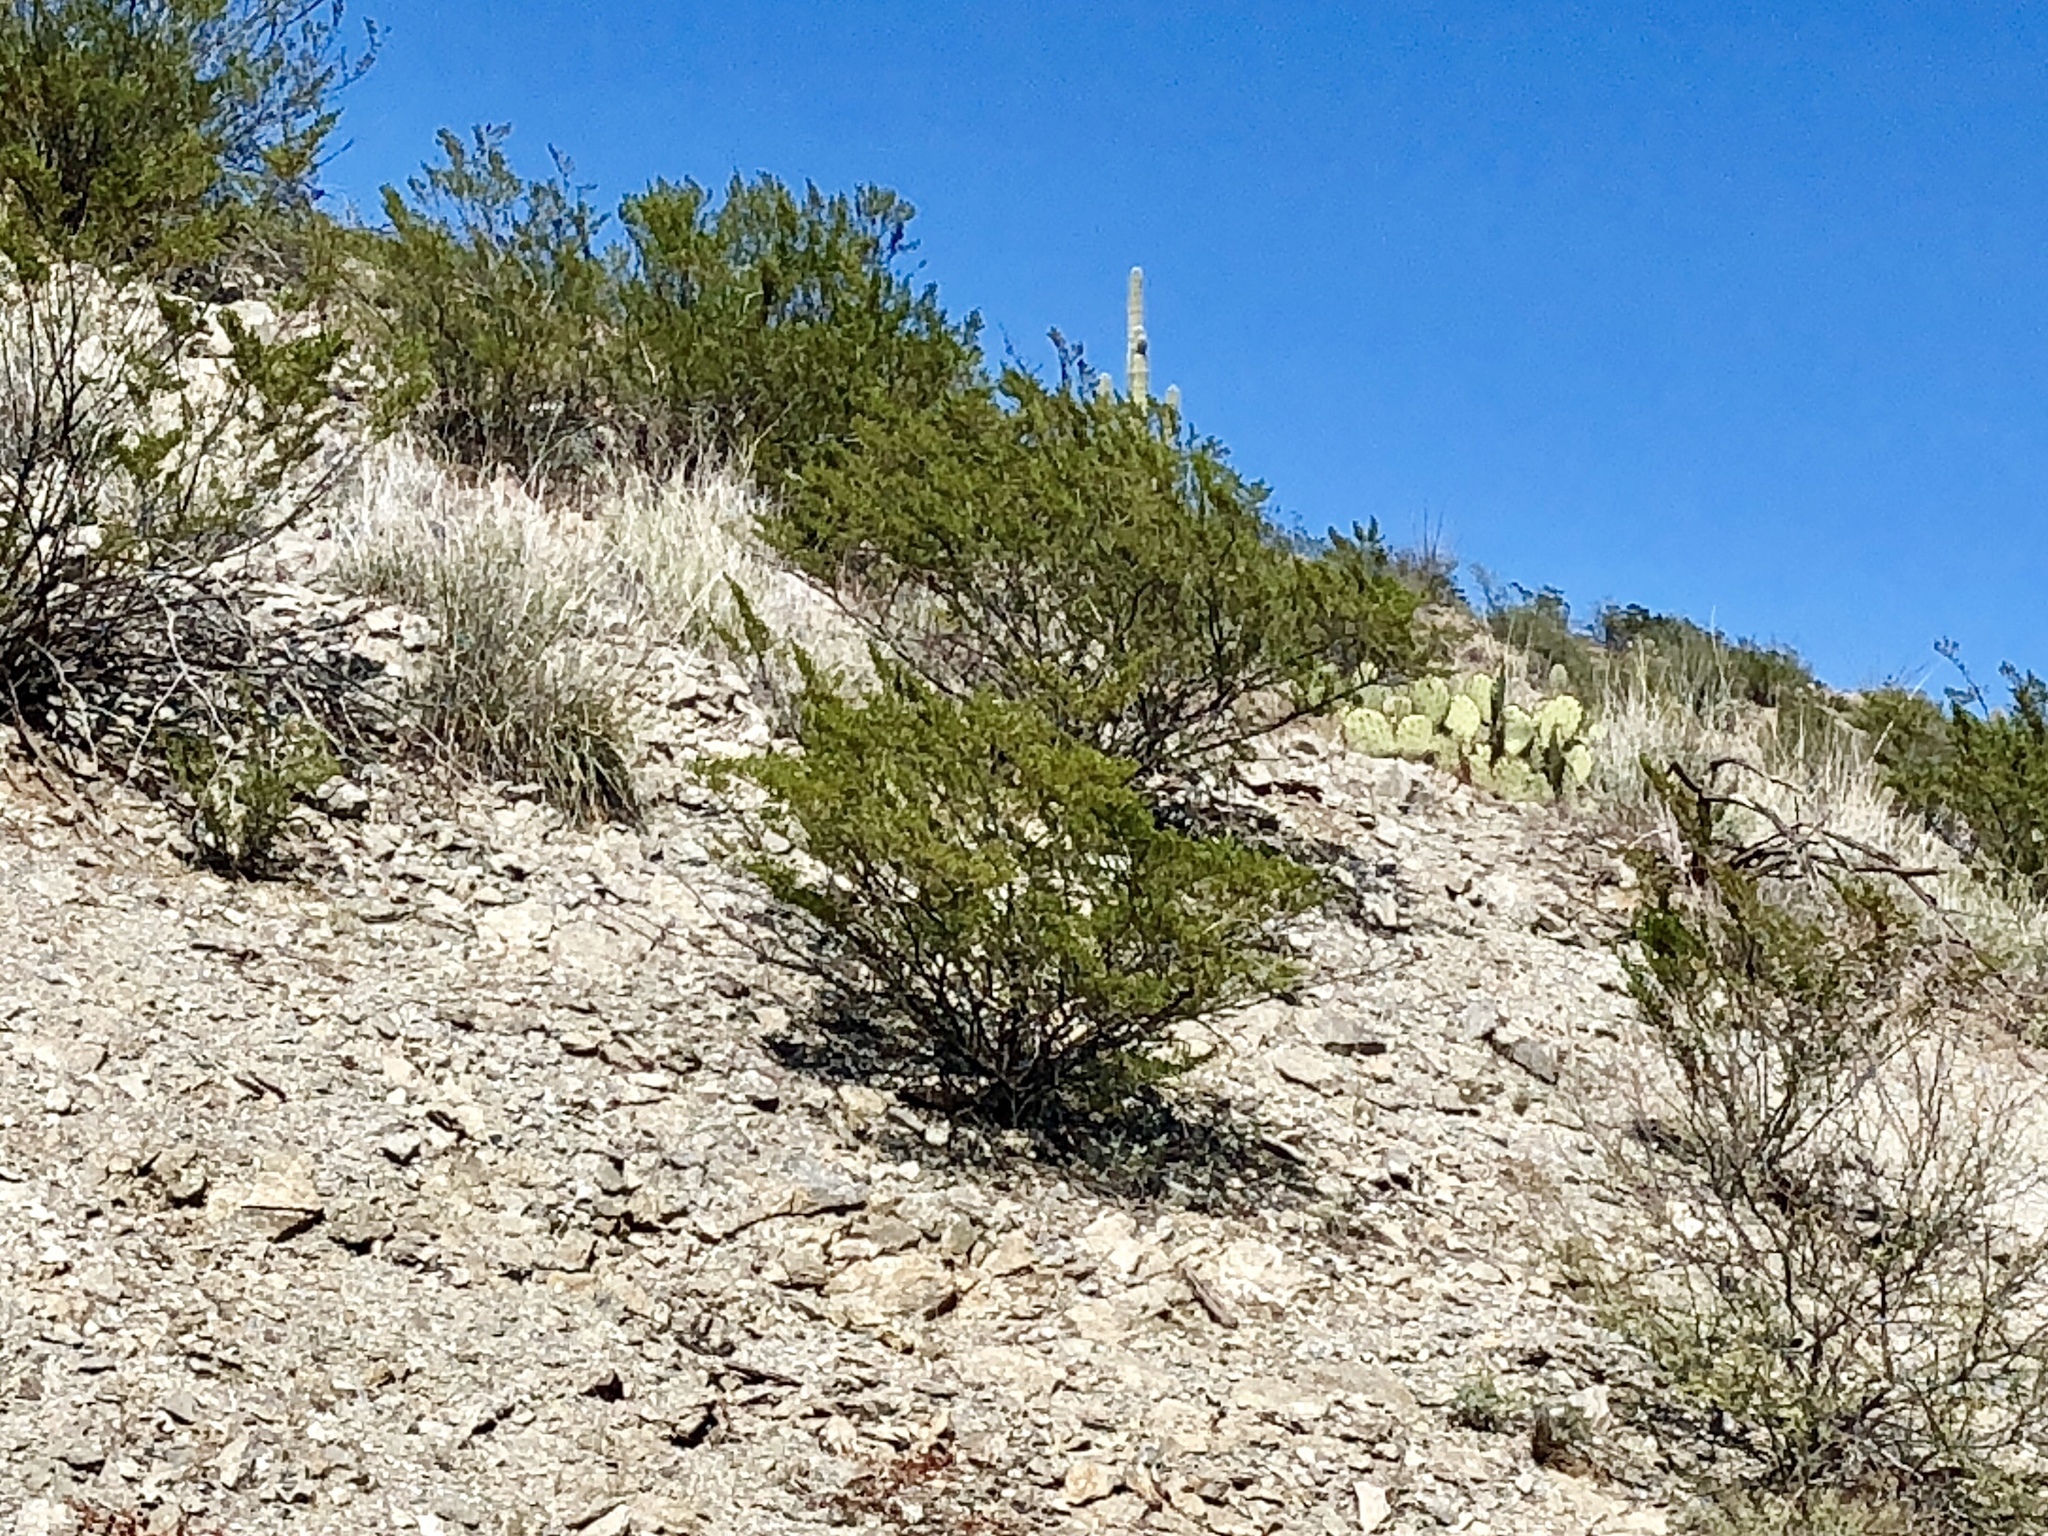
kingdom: Plantae
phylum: Tracheophyta
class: Magnoliopsida
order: Zygophyllales
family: Zygophyllaceae
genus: Larrea
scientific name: Larrea tridentata
